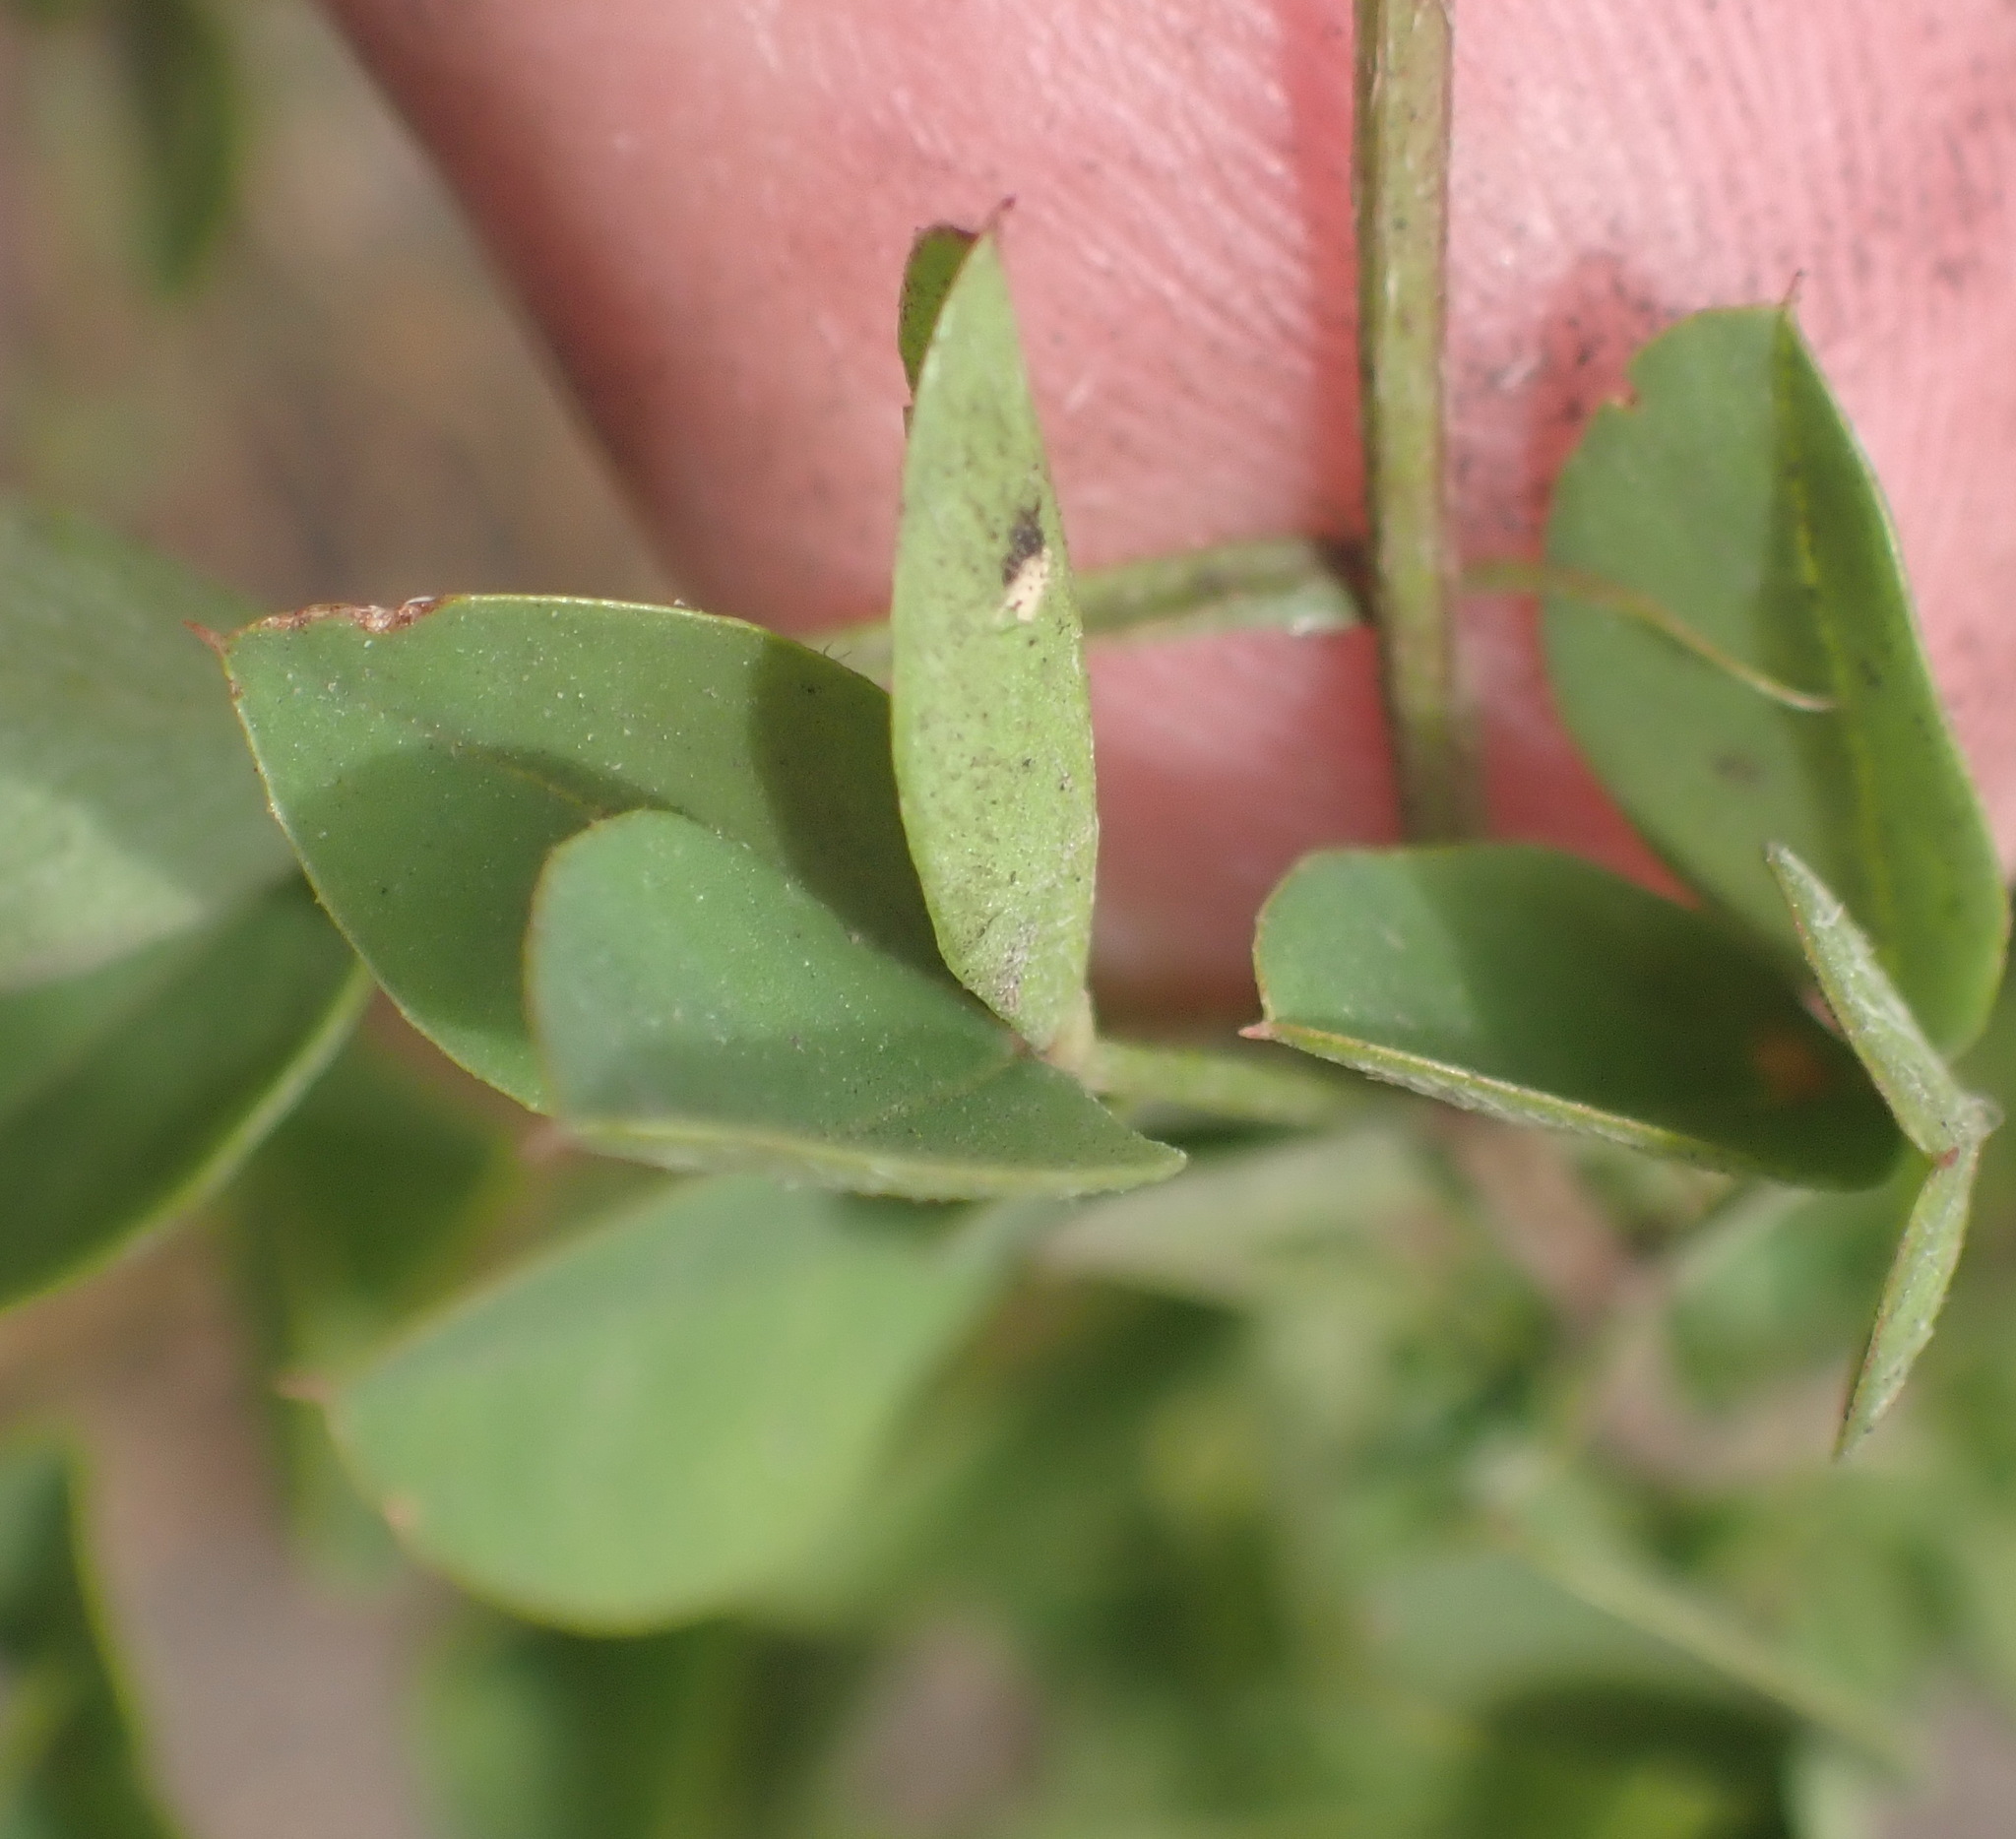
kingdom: Plantae
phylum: Tracheophyta
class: Magnoliopsida
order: Fabales
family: Fabaceae
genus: Indigofera
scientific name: Indigofera erecta
